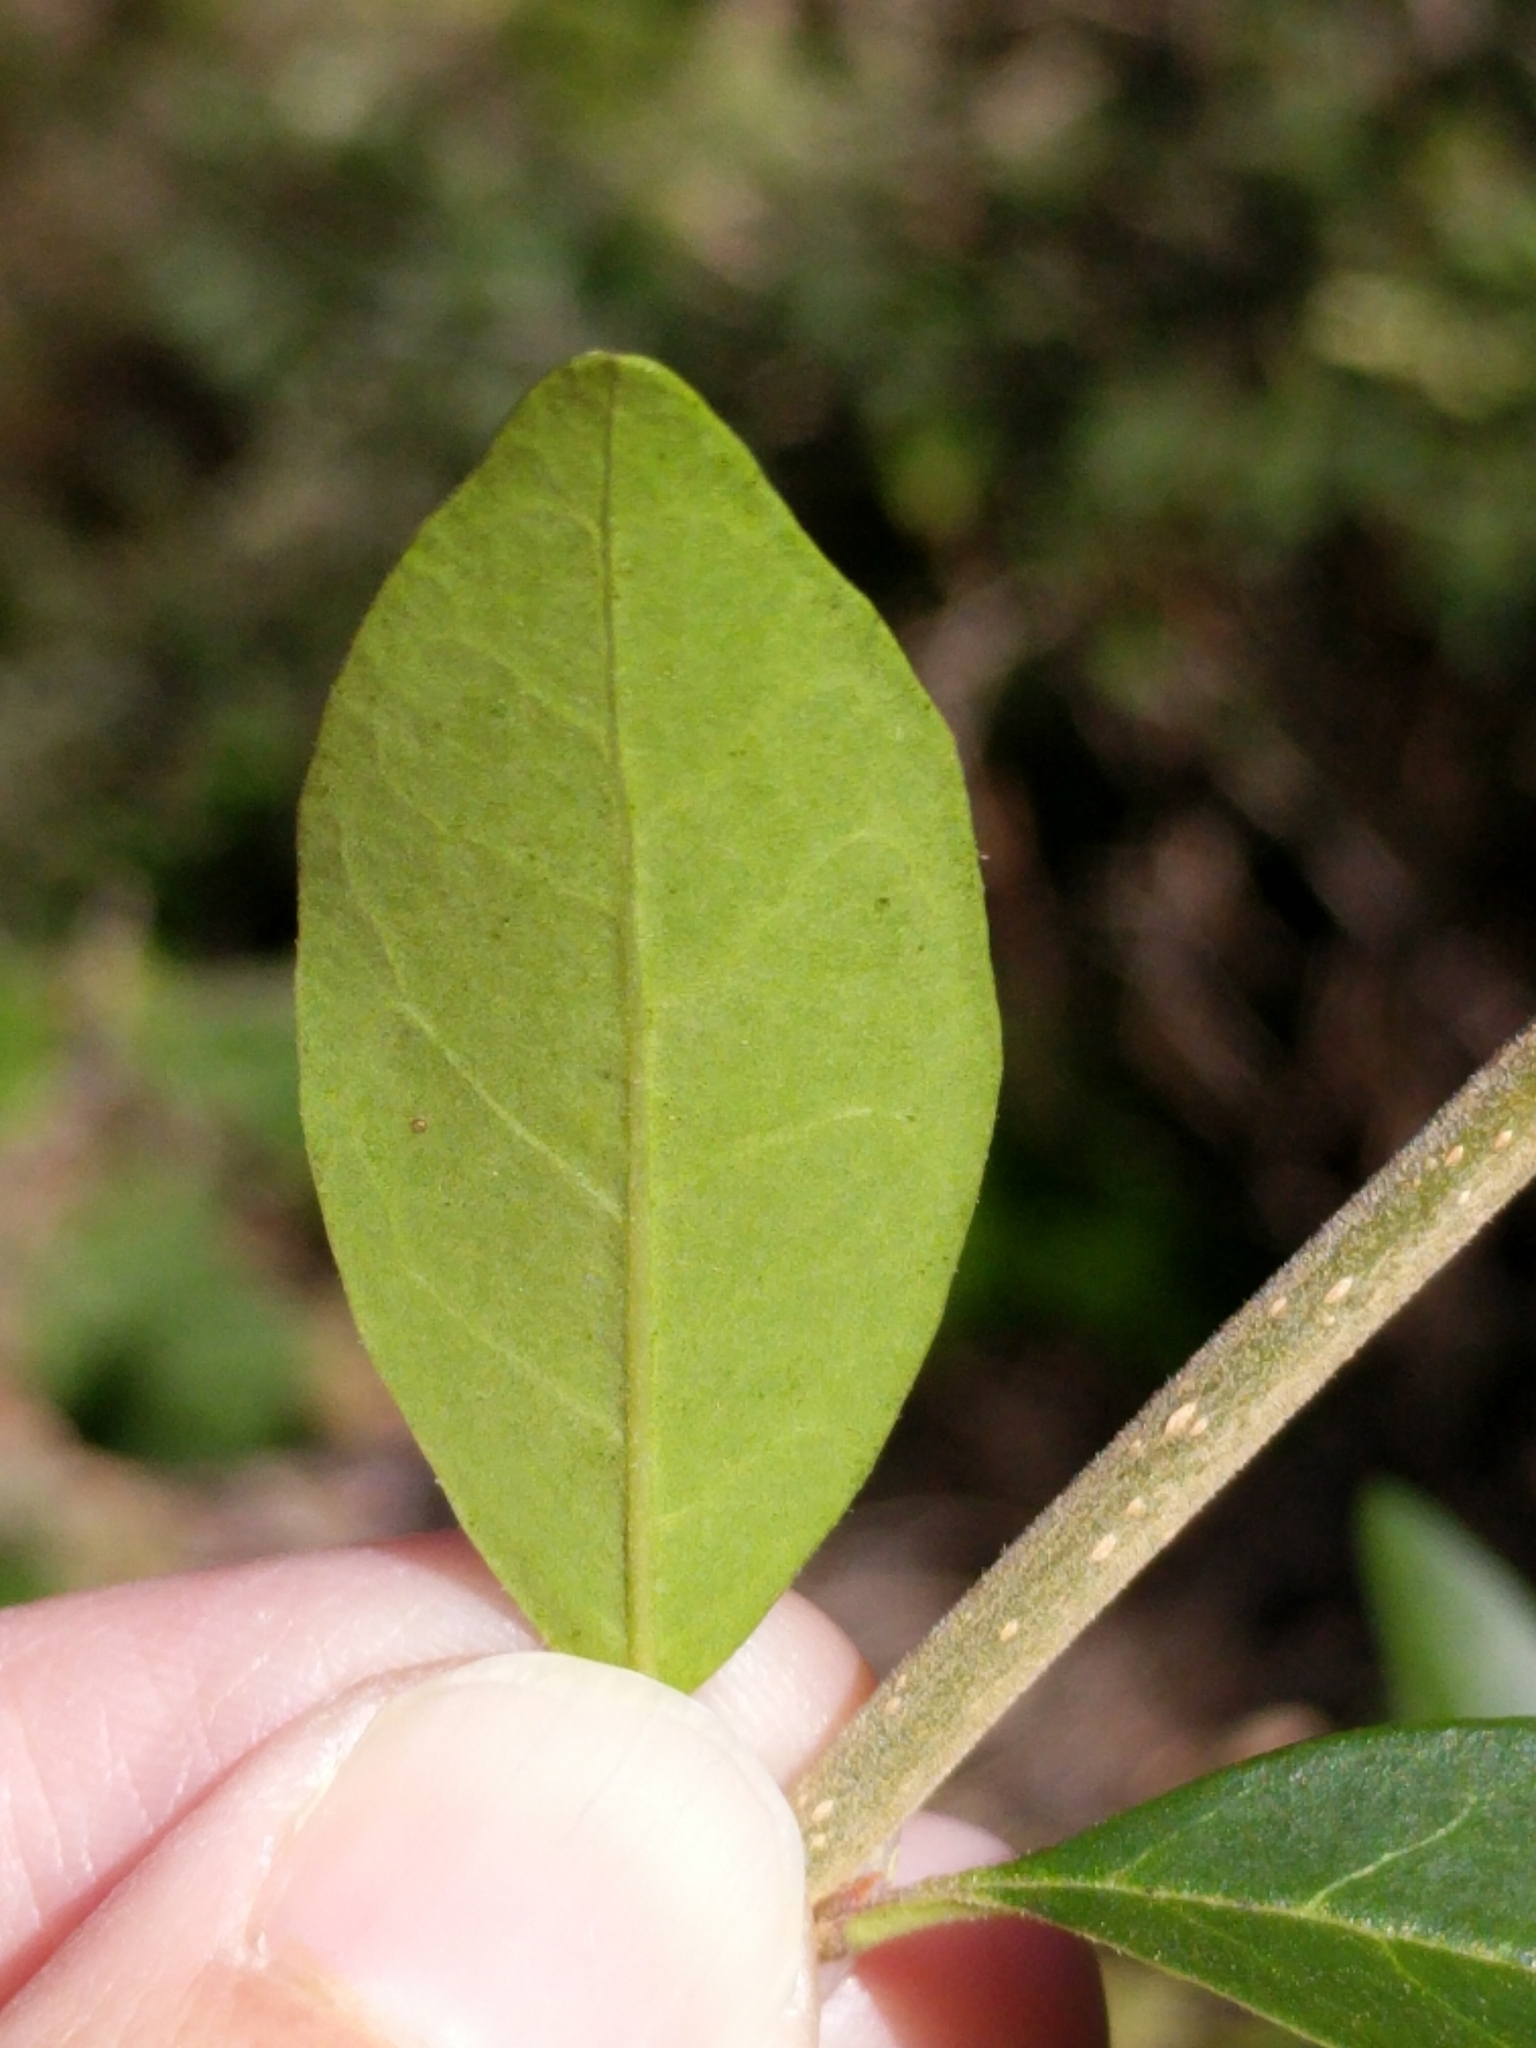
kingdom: Plantae
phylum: Tracheophyta
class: Magnoliopsida
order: Lamiales
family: Oleaceae
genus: Ligustrum
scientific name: Ligustrum quihoui
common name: Waxyleaf privet
